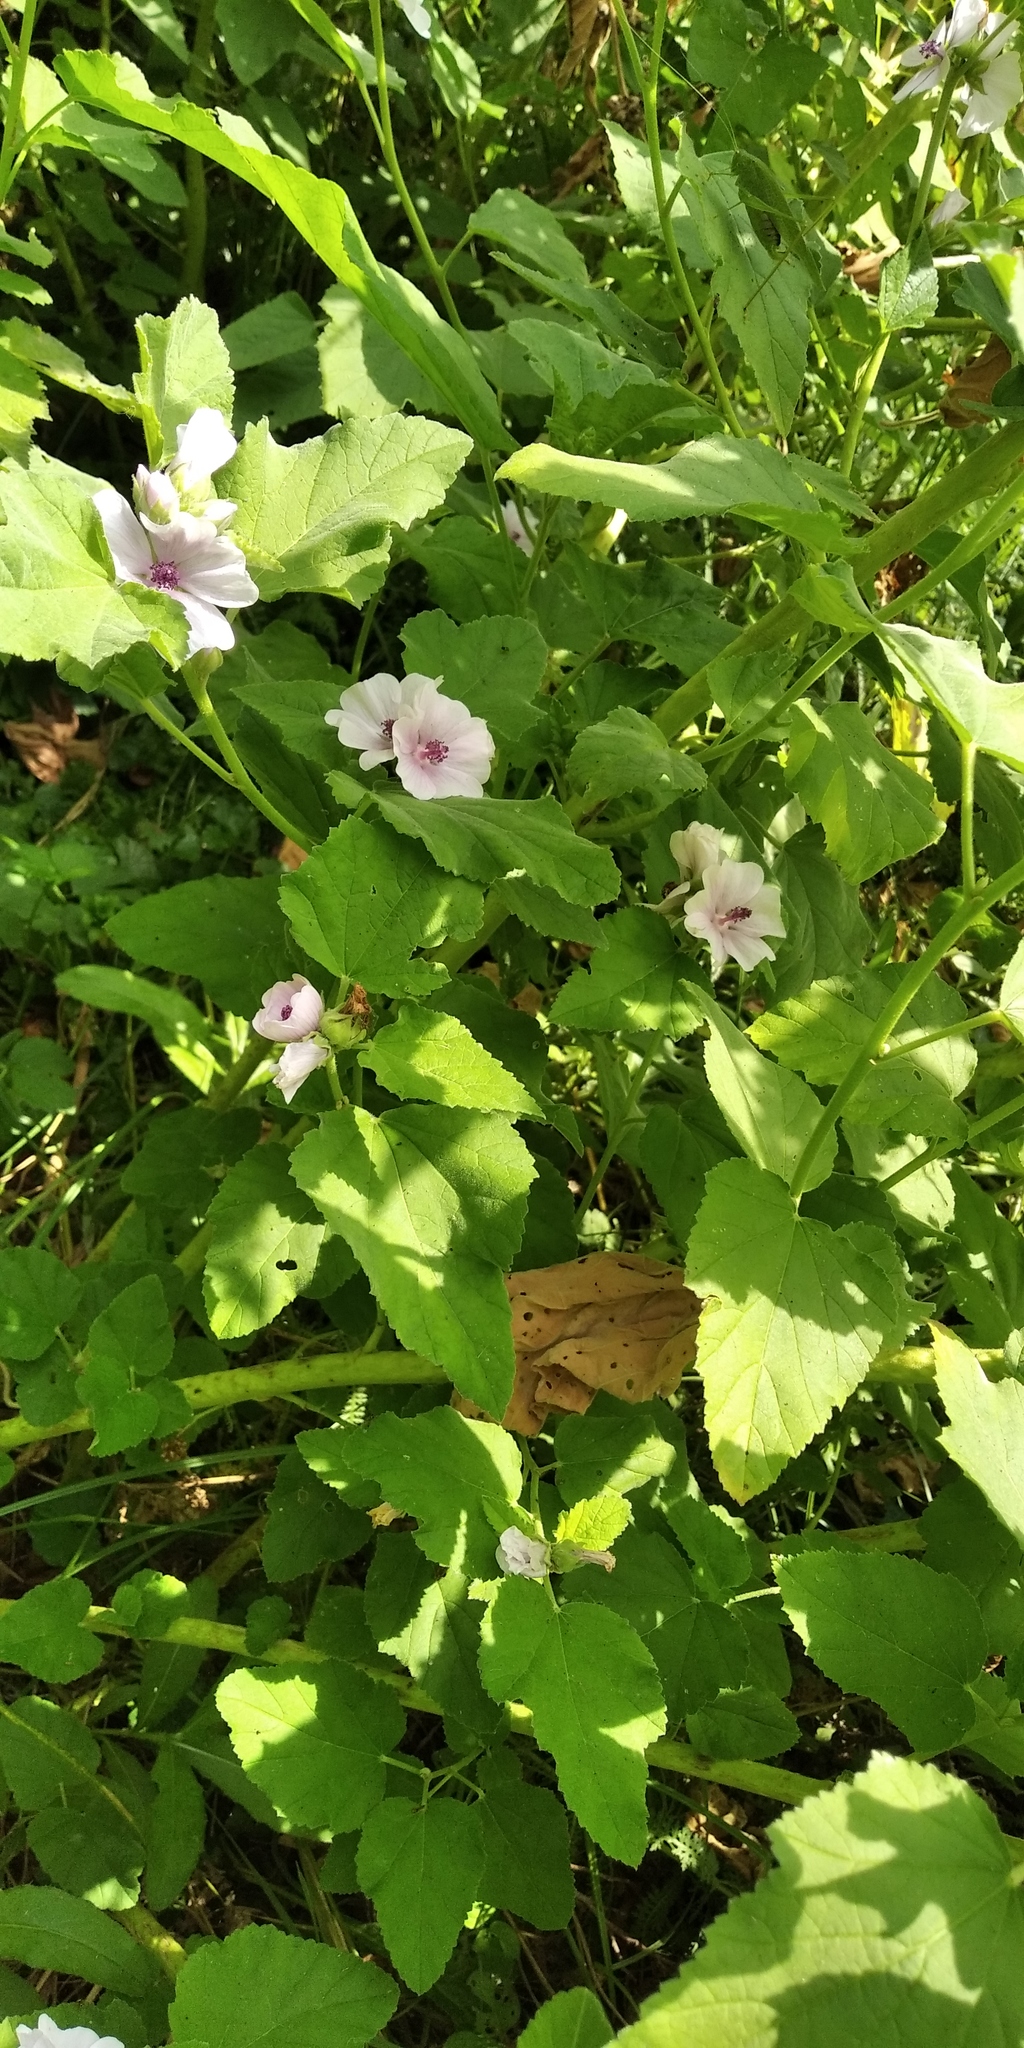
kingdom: Plantae
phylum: Tracheophyta
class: Magnoliopsida
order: Malvales
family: Malvaceae
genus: Althaea
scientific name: Althaea officinalis
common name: Marsh-mallow
